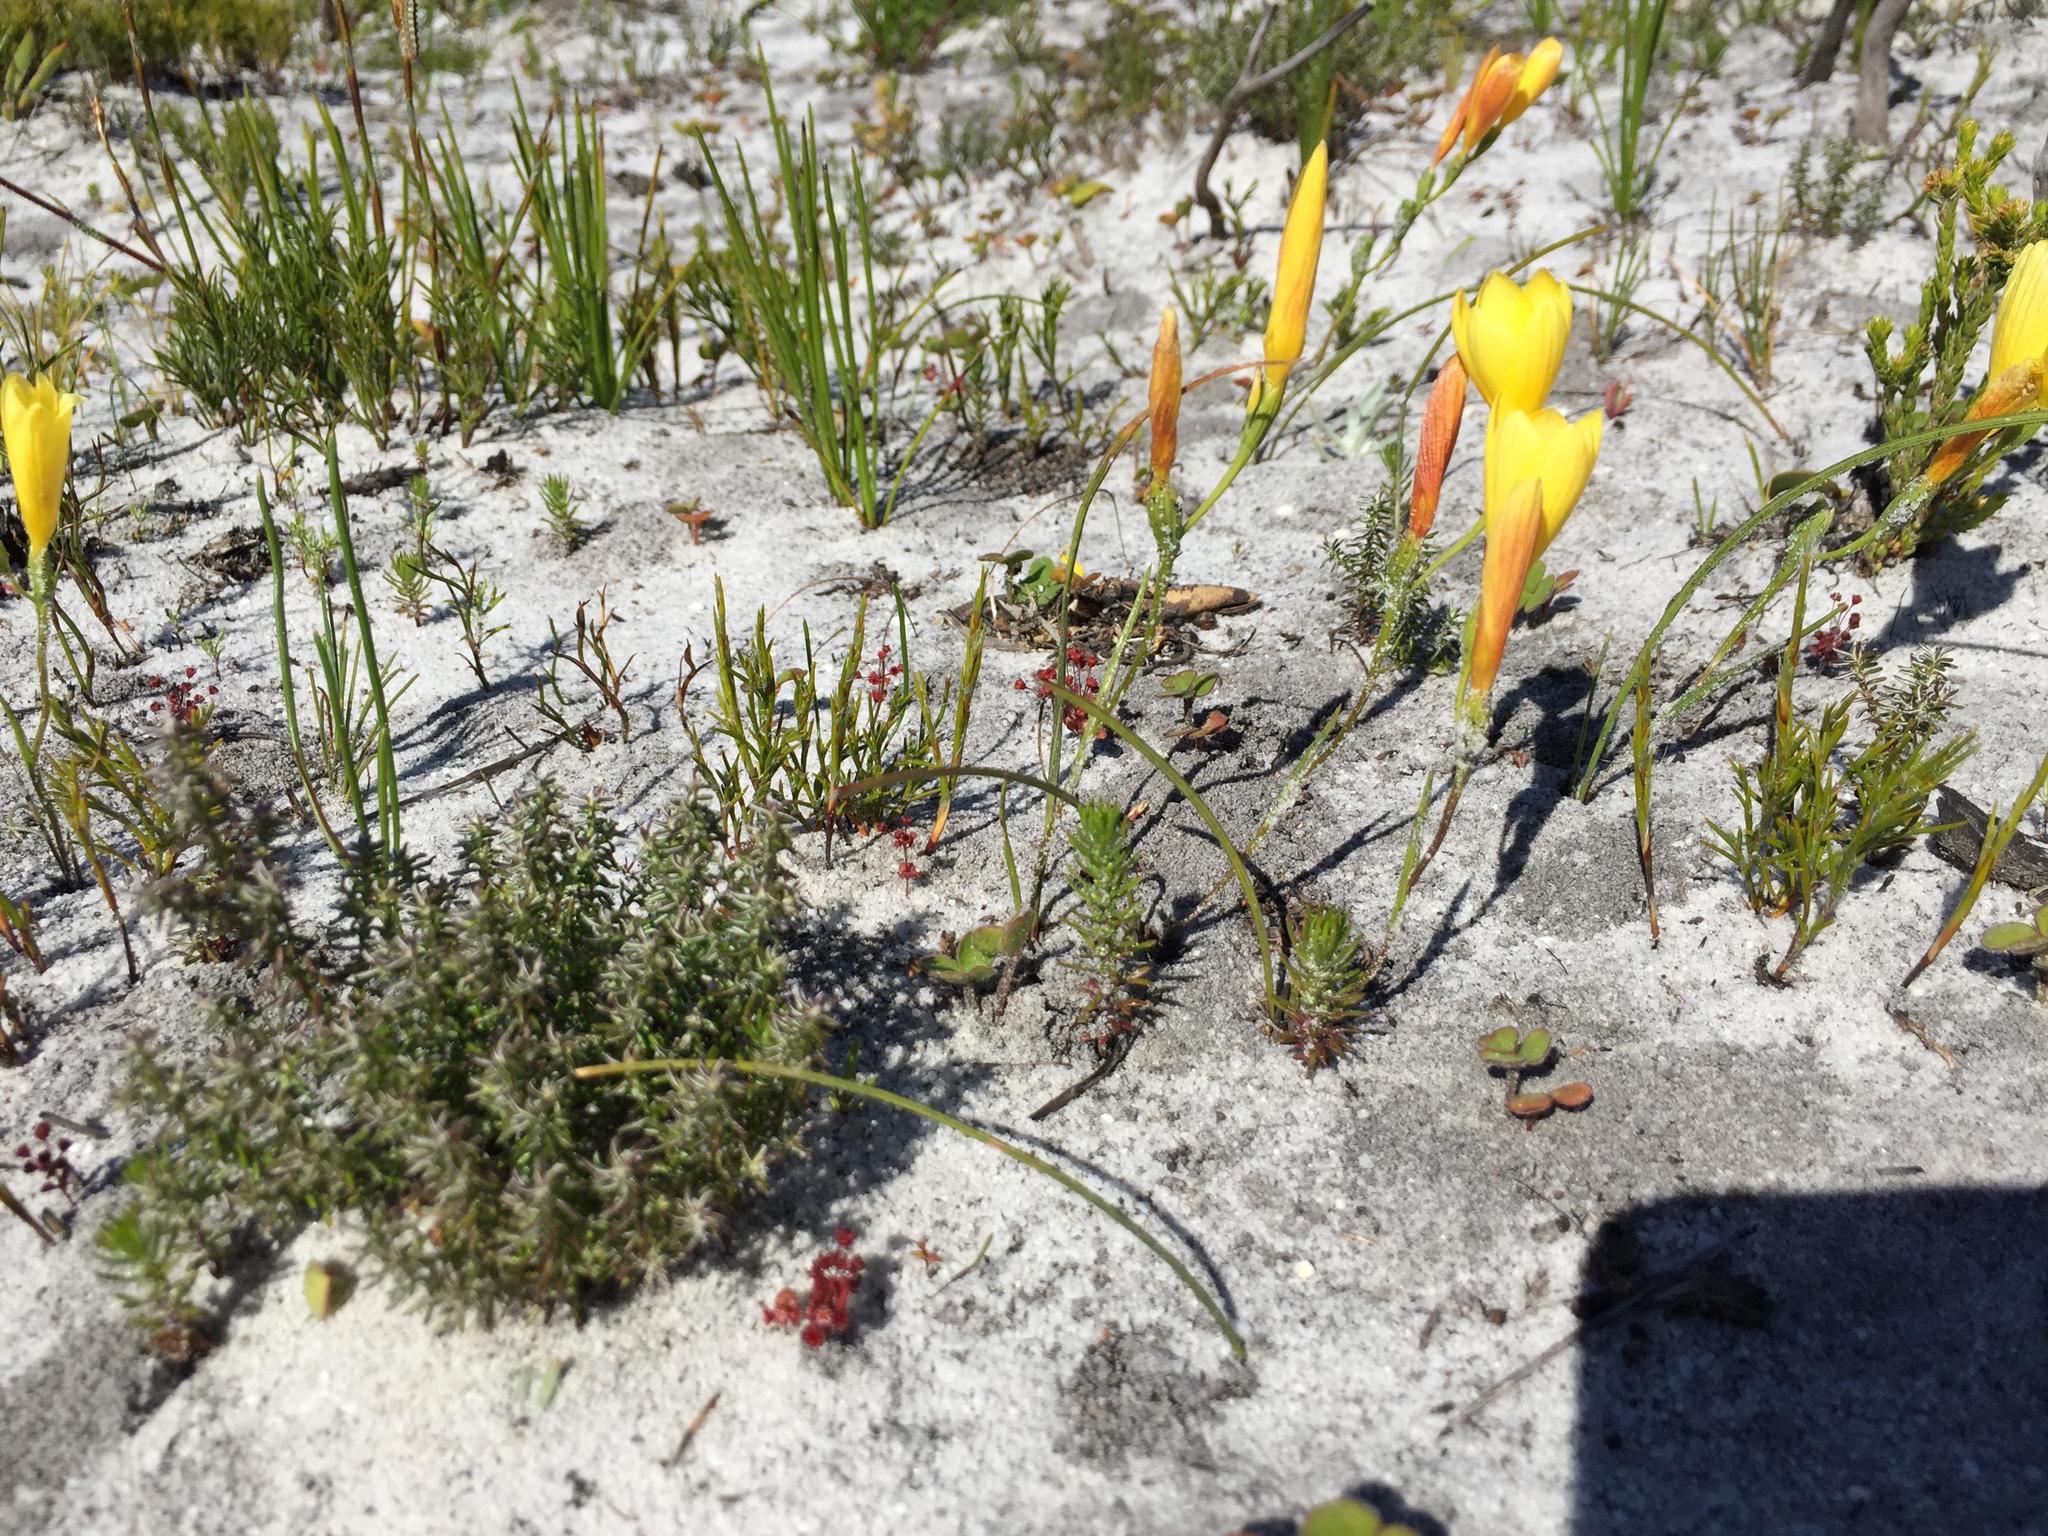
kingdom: Plantae
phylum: Tracheophyta
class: Liliopsida
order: Asparagales
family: Iridaceae
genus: Geissorhiza
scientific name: Geissorhiza humilis
